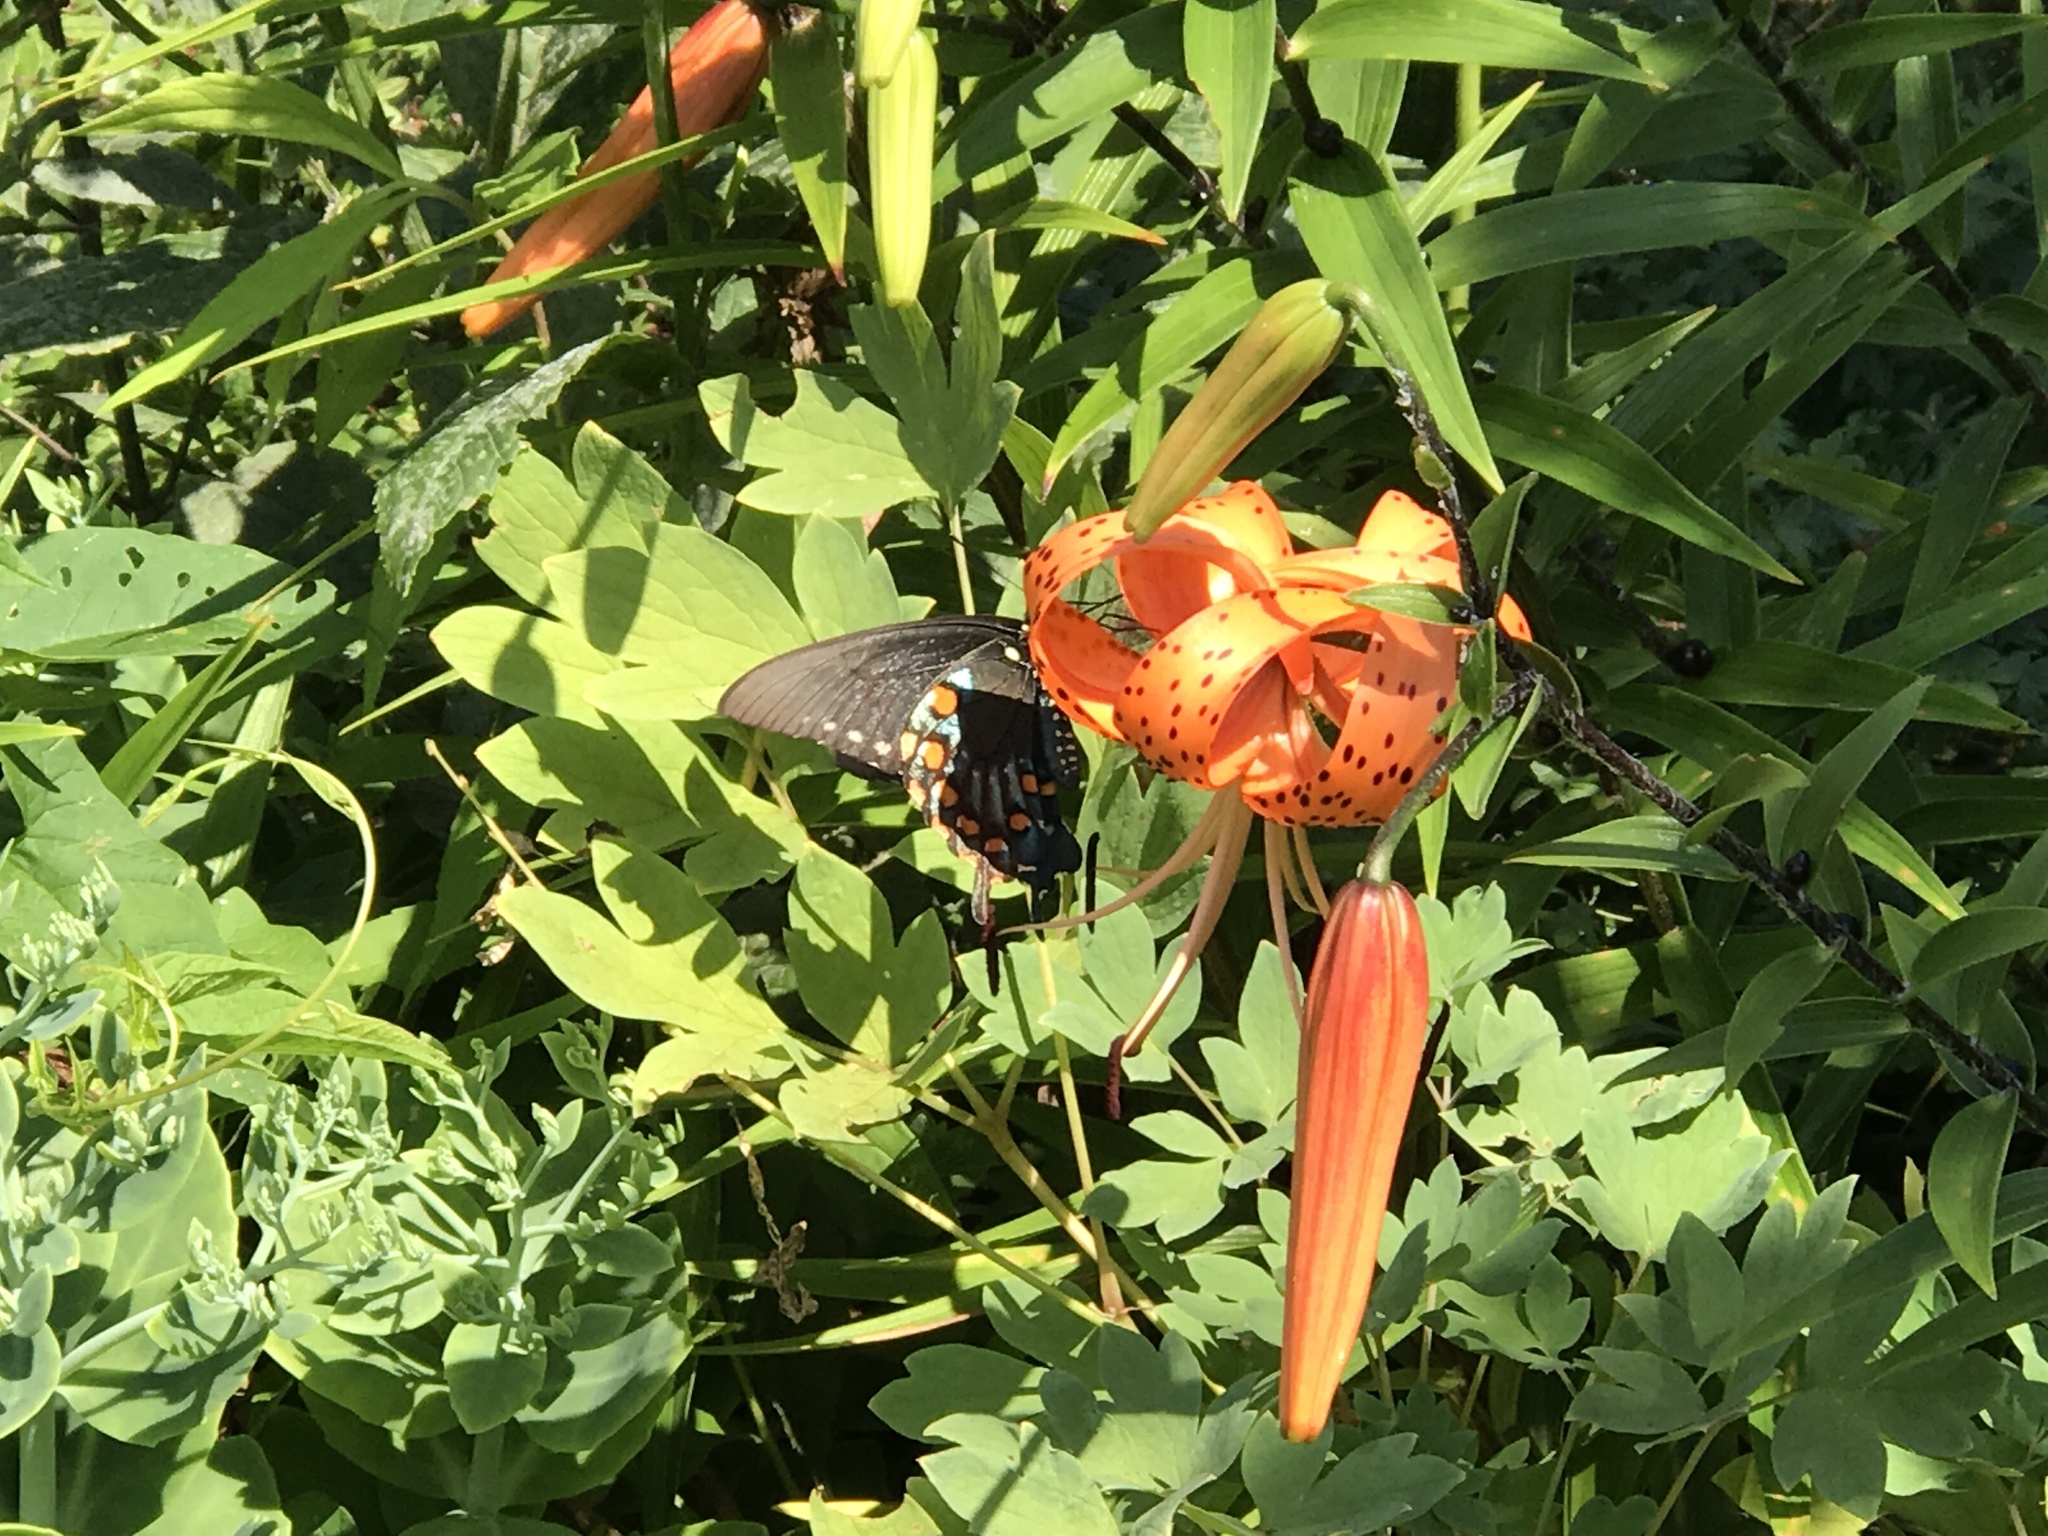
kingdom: Animalia
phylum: Arthropoda
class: Insecta
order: Lepidoptera
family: Papilionidae
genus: Battus
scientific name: Battus philenor
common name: Pipevine swallowtail
